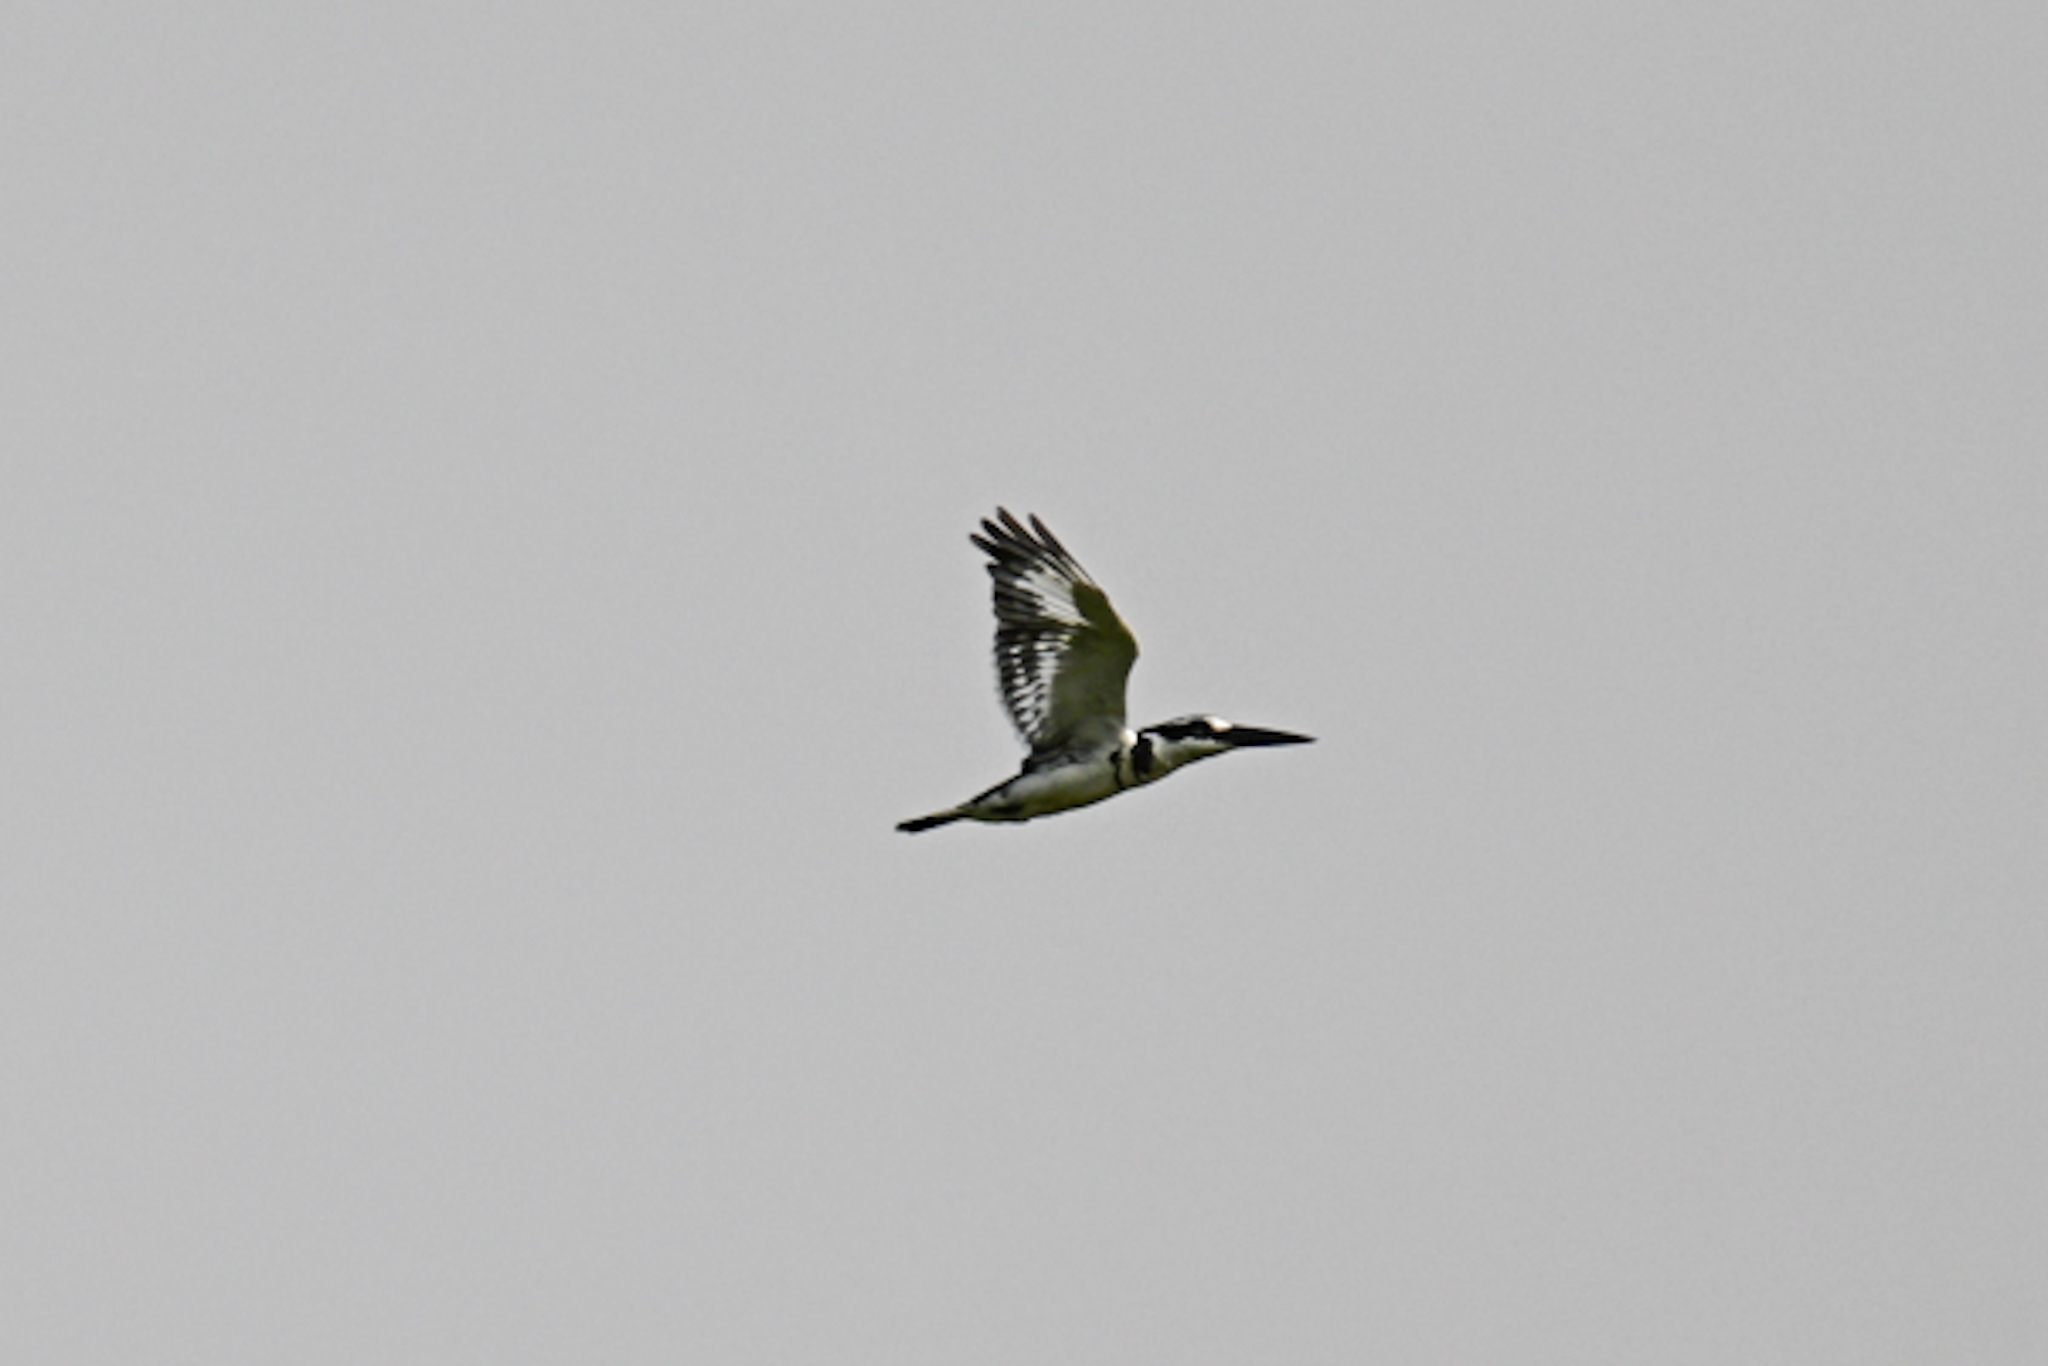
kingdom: Animalia
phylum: Chordata
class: Aves
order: Coraciiformes
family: Alcedinidae
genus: Ceryle
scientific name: Ceryle rudis
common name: Pied kingfisher
